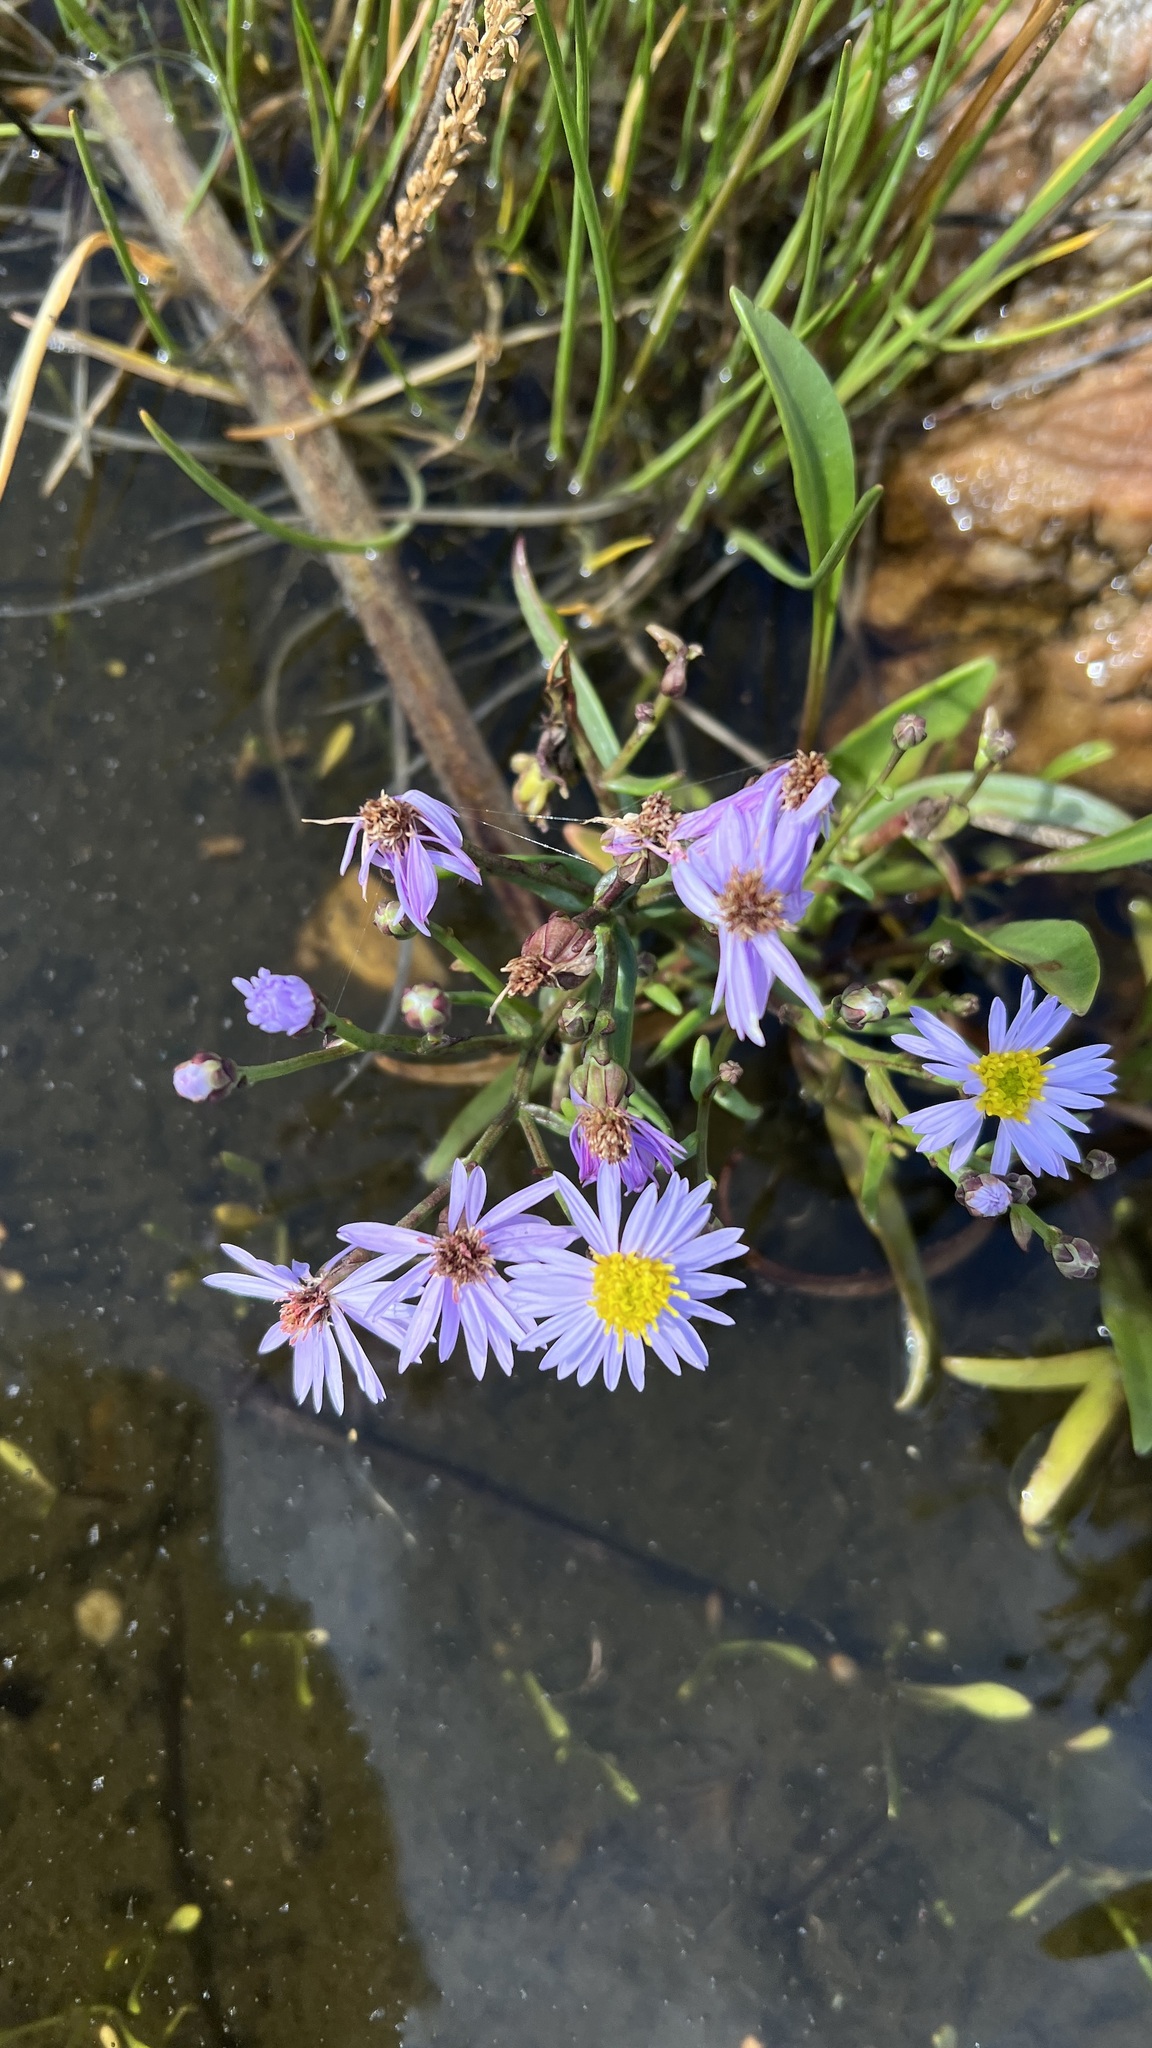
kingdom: Plantae
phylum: Tracheophyta
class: Magnoliopsida
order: Asterales
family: Asteraceae
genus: Tripolium
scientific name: Tripolium pannonicum
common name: Sea aster
